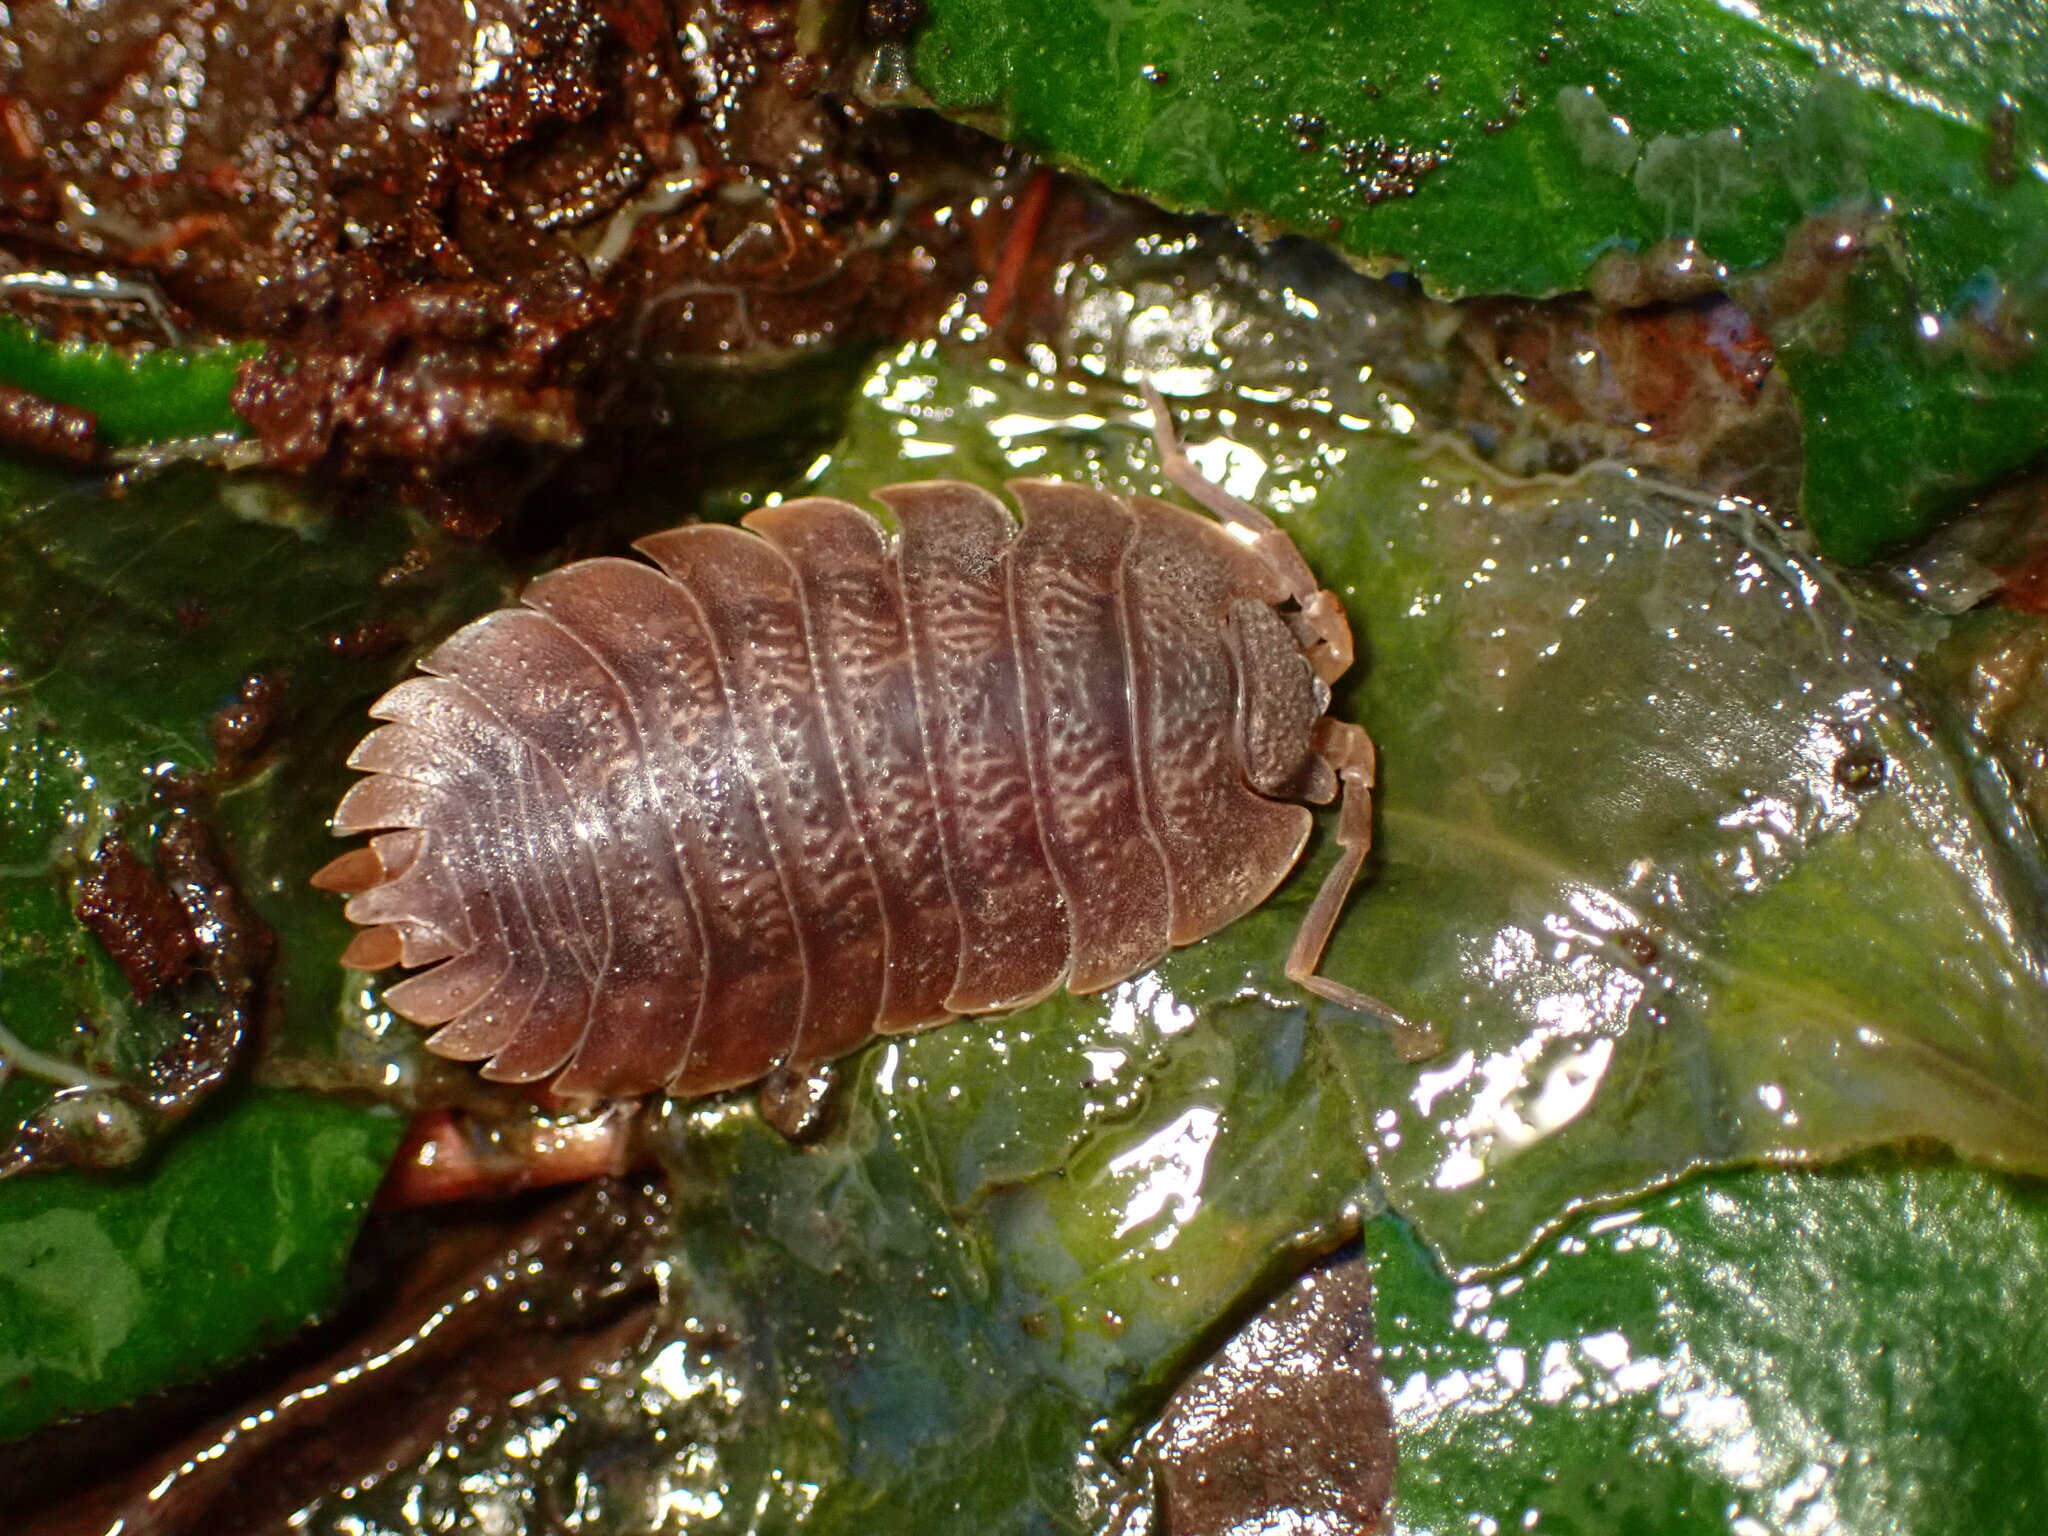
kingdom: Animalia
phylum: Arthropoda
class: Malacostraca
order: Isopoda
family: Porcellionidae
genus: Porcellio
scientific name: Porcellio dilatatus
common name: Isopod
